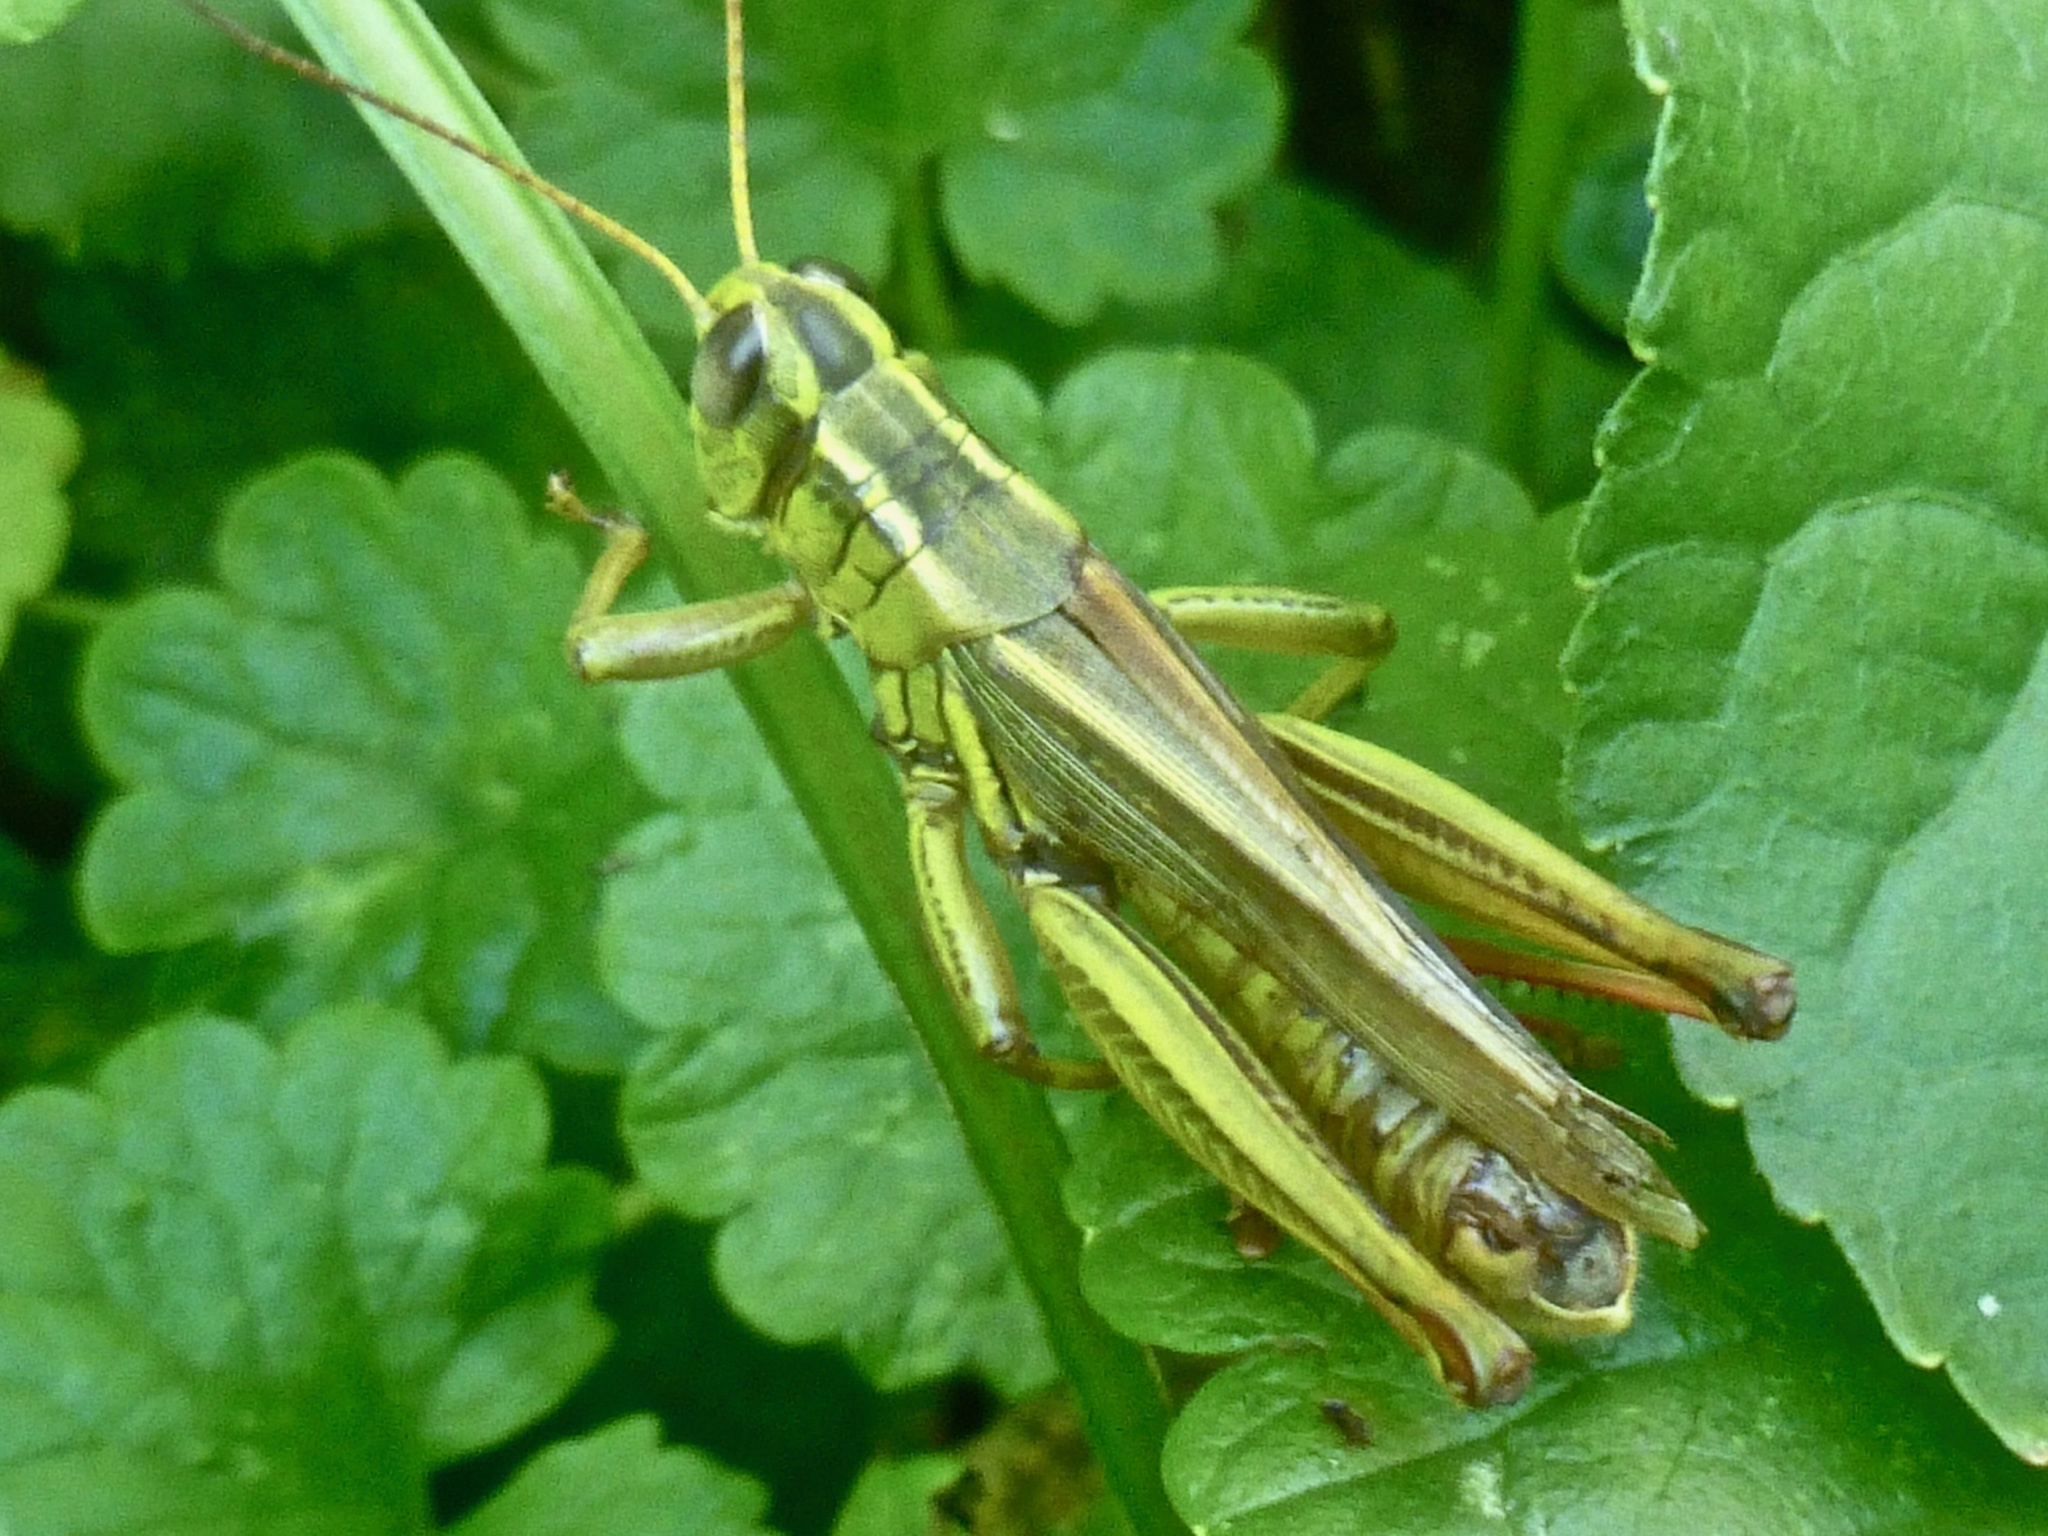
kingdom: Animalia
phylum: Arthropoda
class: Insecta
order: Orthoptera
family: Acrididae
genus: Melanoplus
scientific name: Melanoplus bivittatus
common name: Two-striped grasshopper
